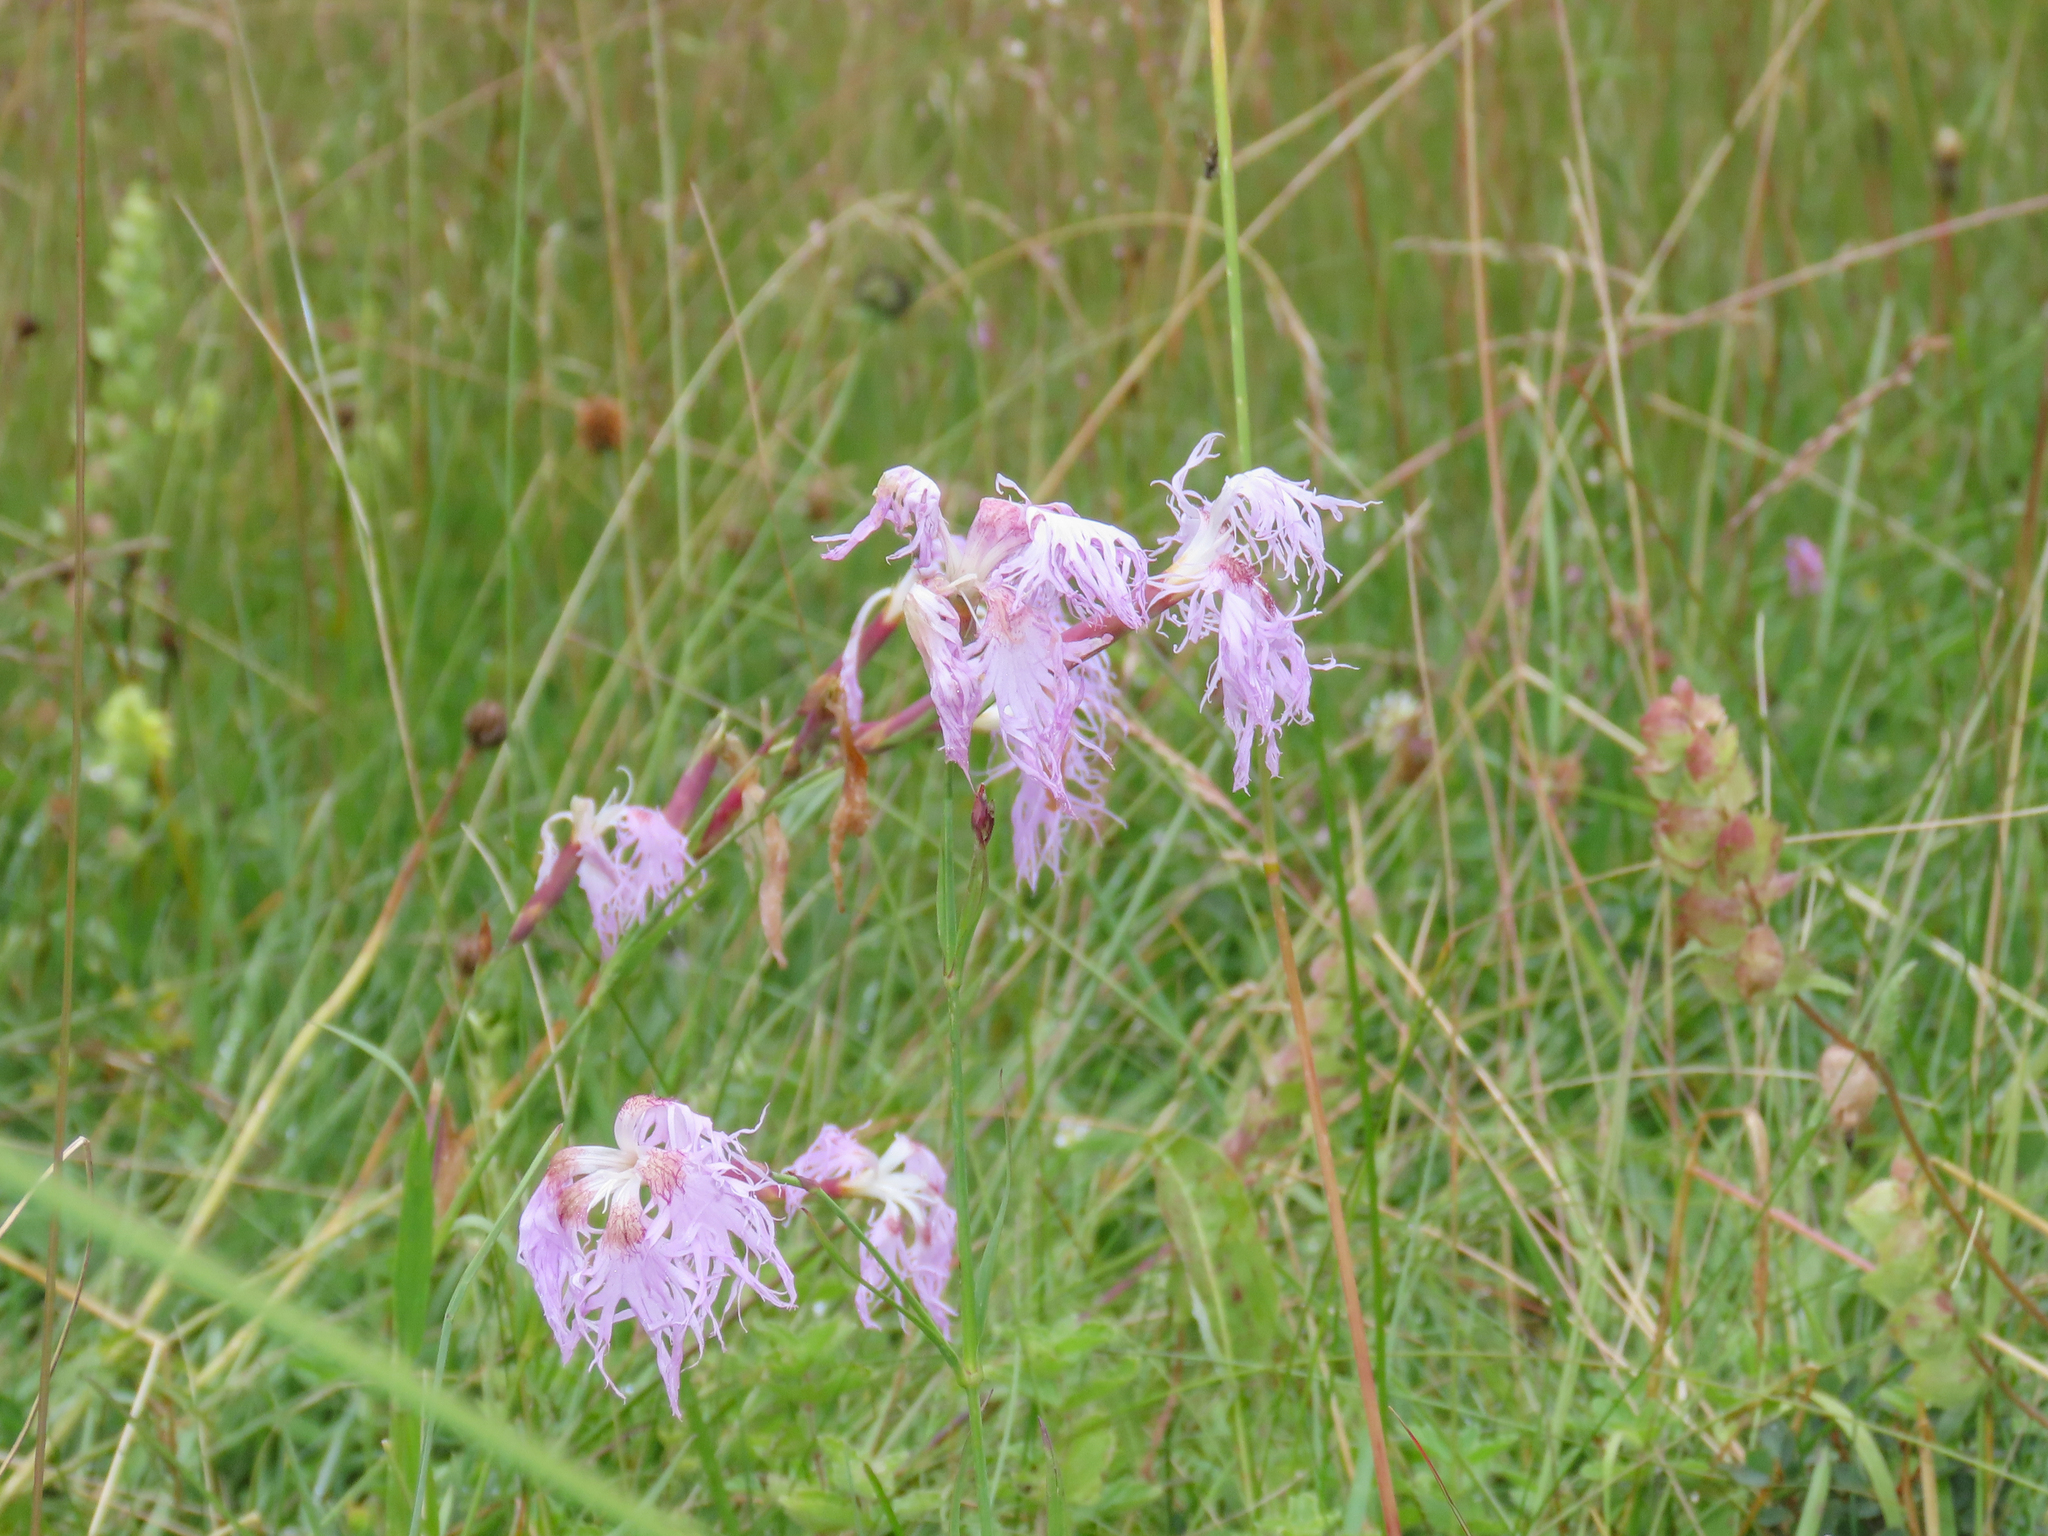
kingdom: Plantae
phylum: Tracheophyta
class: Magnoliopsida
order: Caryophyllales
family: Caryophyllaceae
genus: Dianthus
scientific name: Dianthus superbus
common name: Fringed pink
